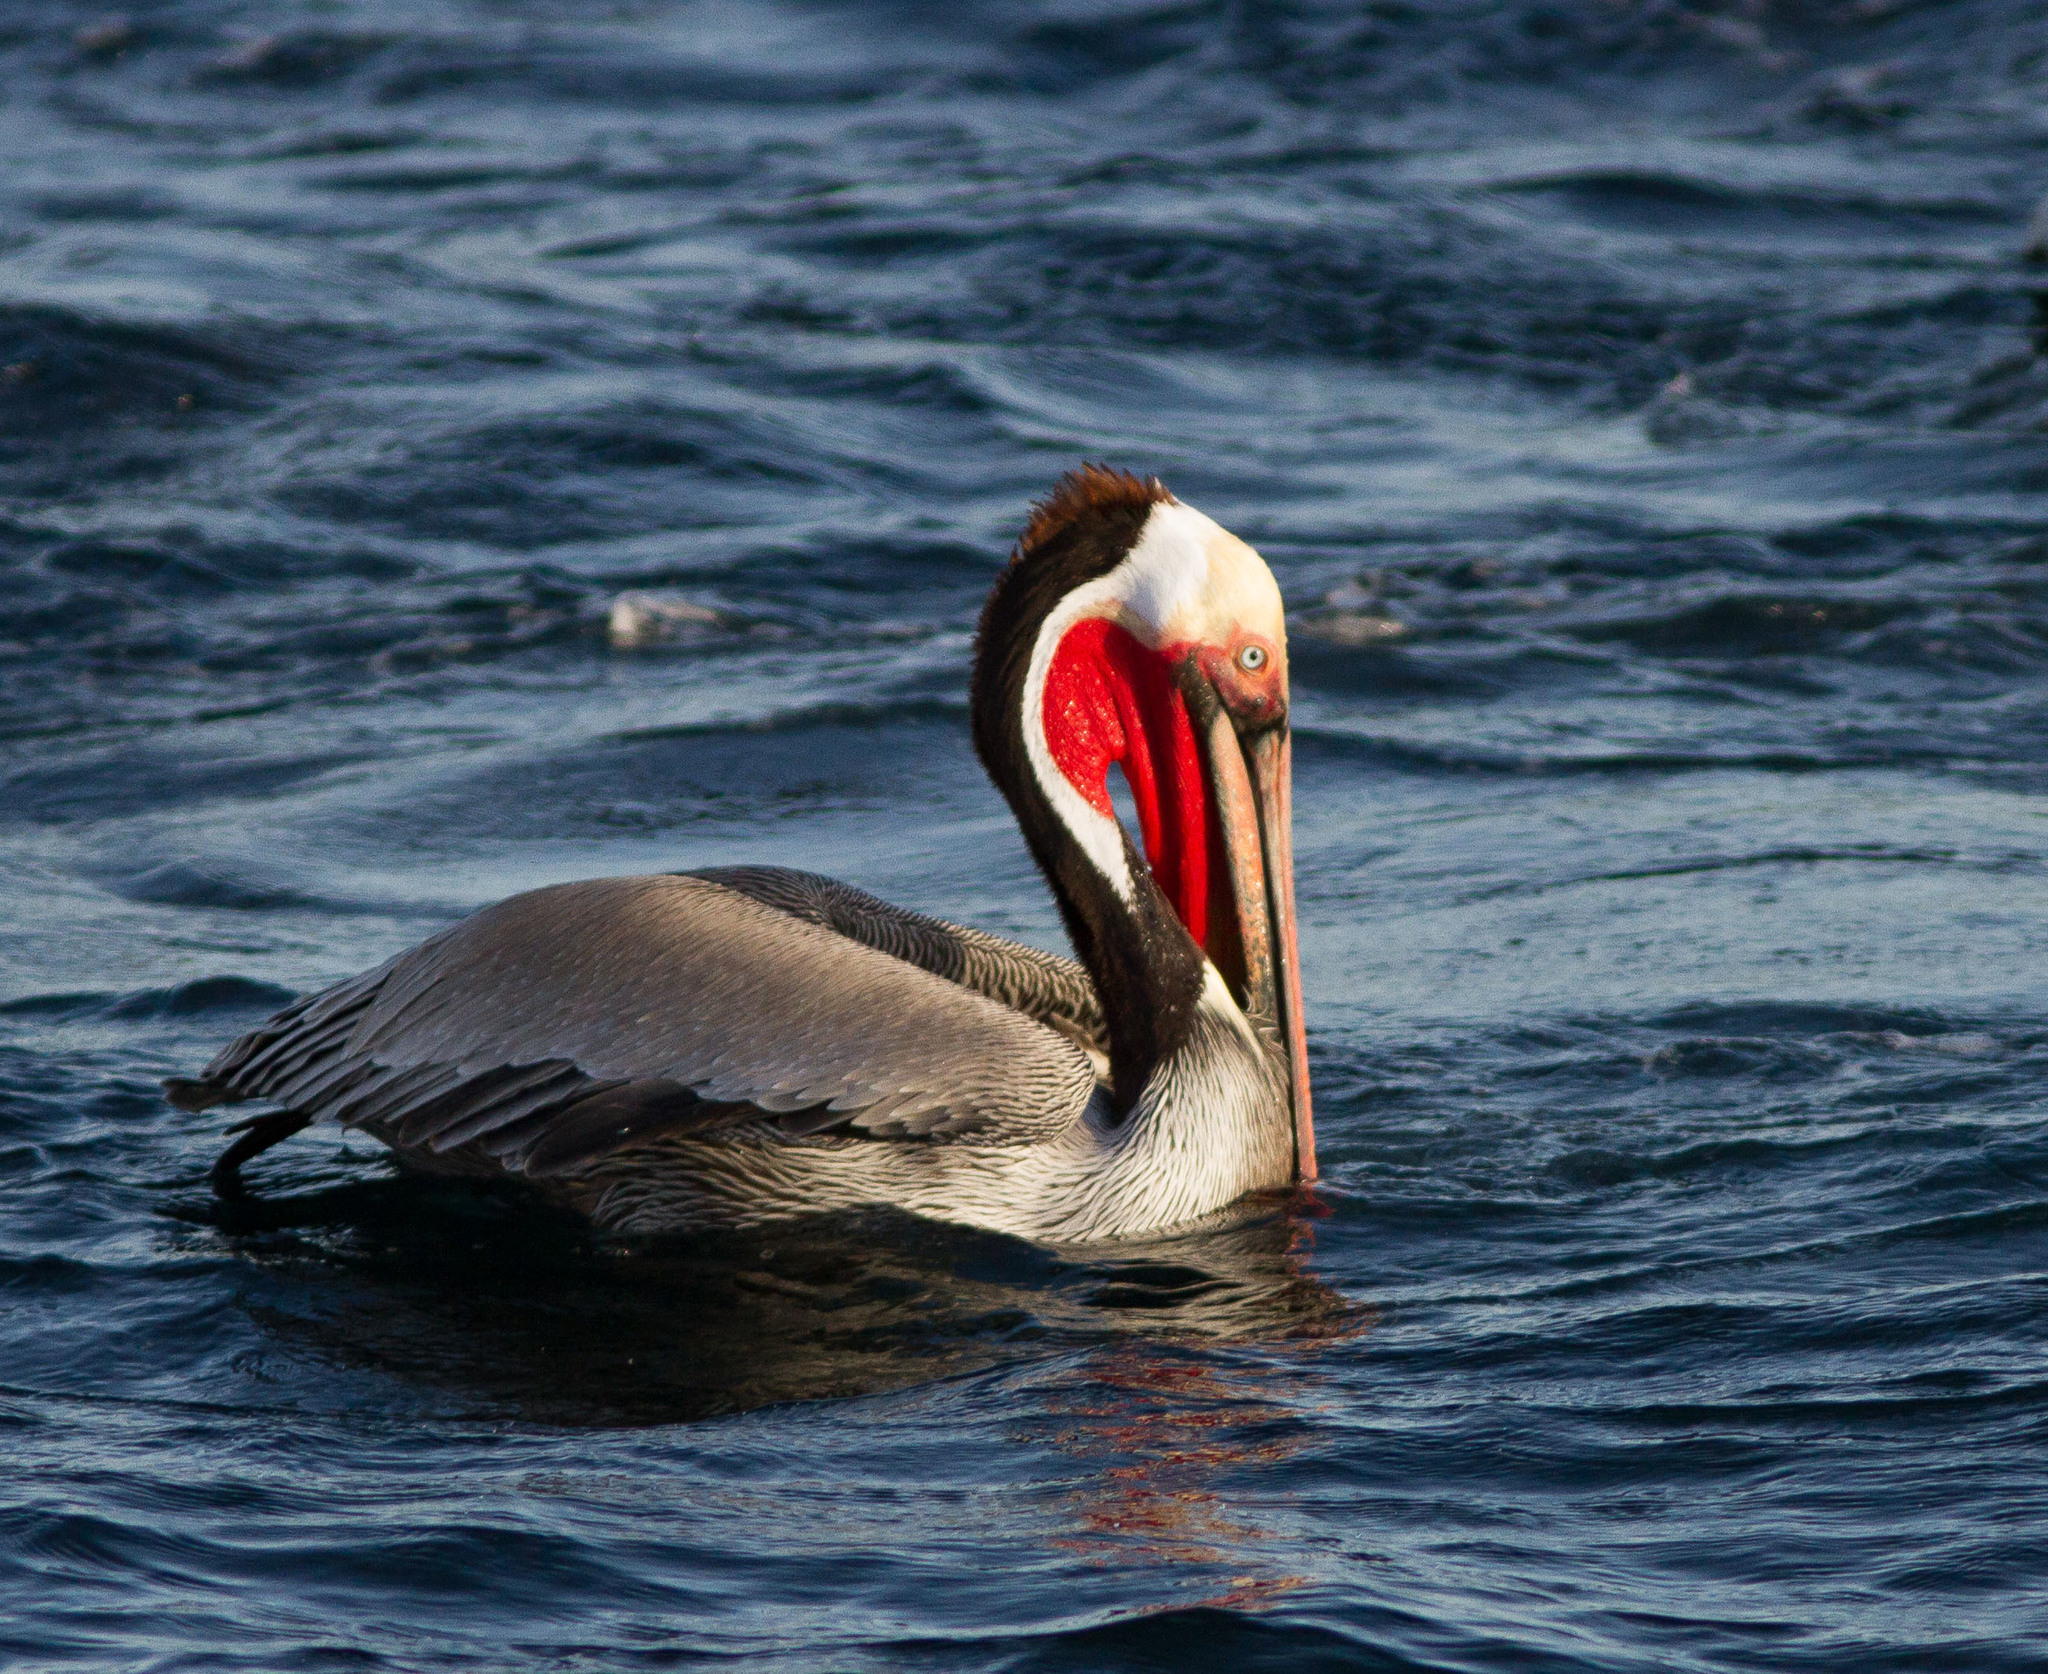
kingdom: Animalia
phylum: Chordata
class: Aves
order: Pelecaniformes
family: Pelecanidae
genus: Pelecanus
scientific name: Pelecanus occidentalis
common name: Brown pelican
